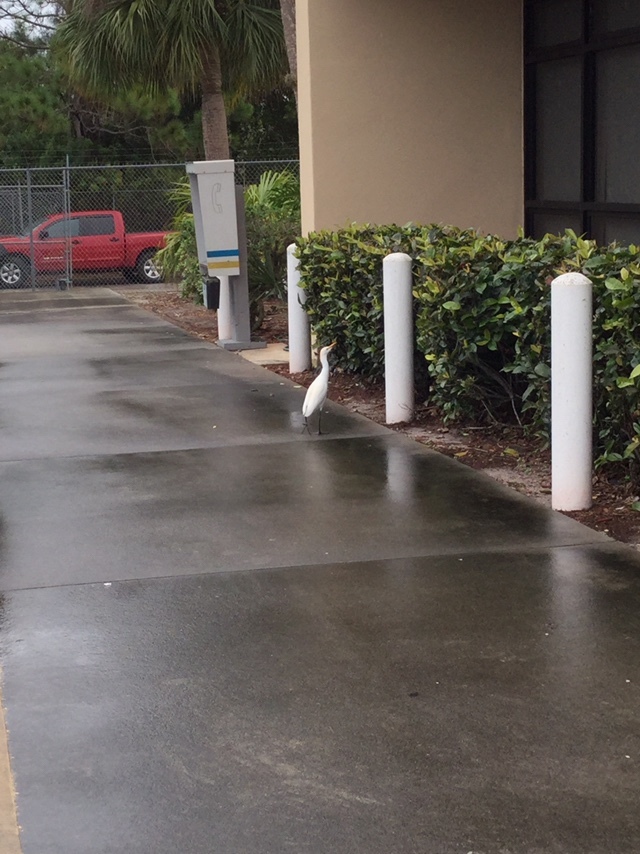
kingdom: Animalia
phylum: Chordata
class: Aves
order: Pelecaniformes
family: Ardeidae
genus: Bubulcus
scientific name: Bubulcus ibis
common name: Cattle egret
